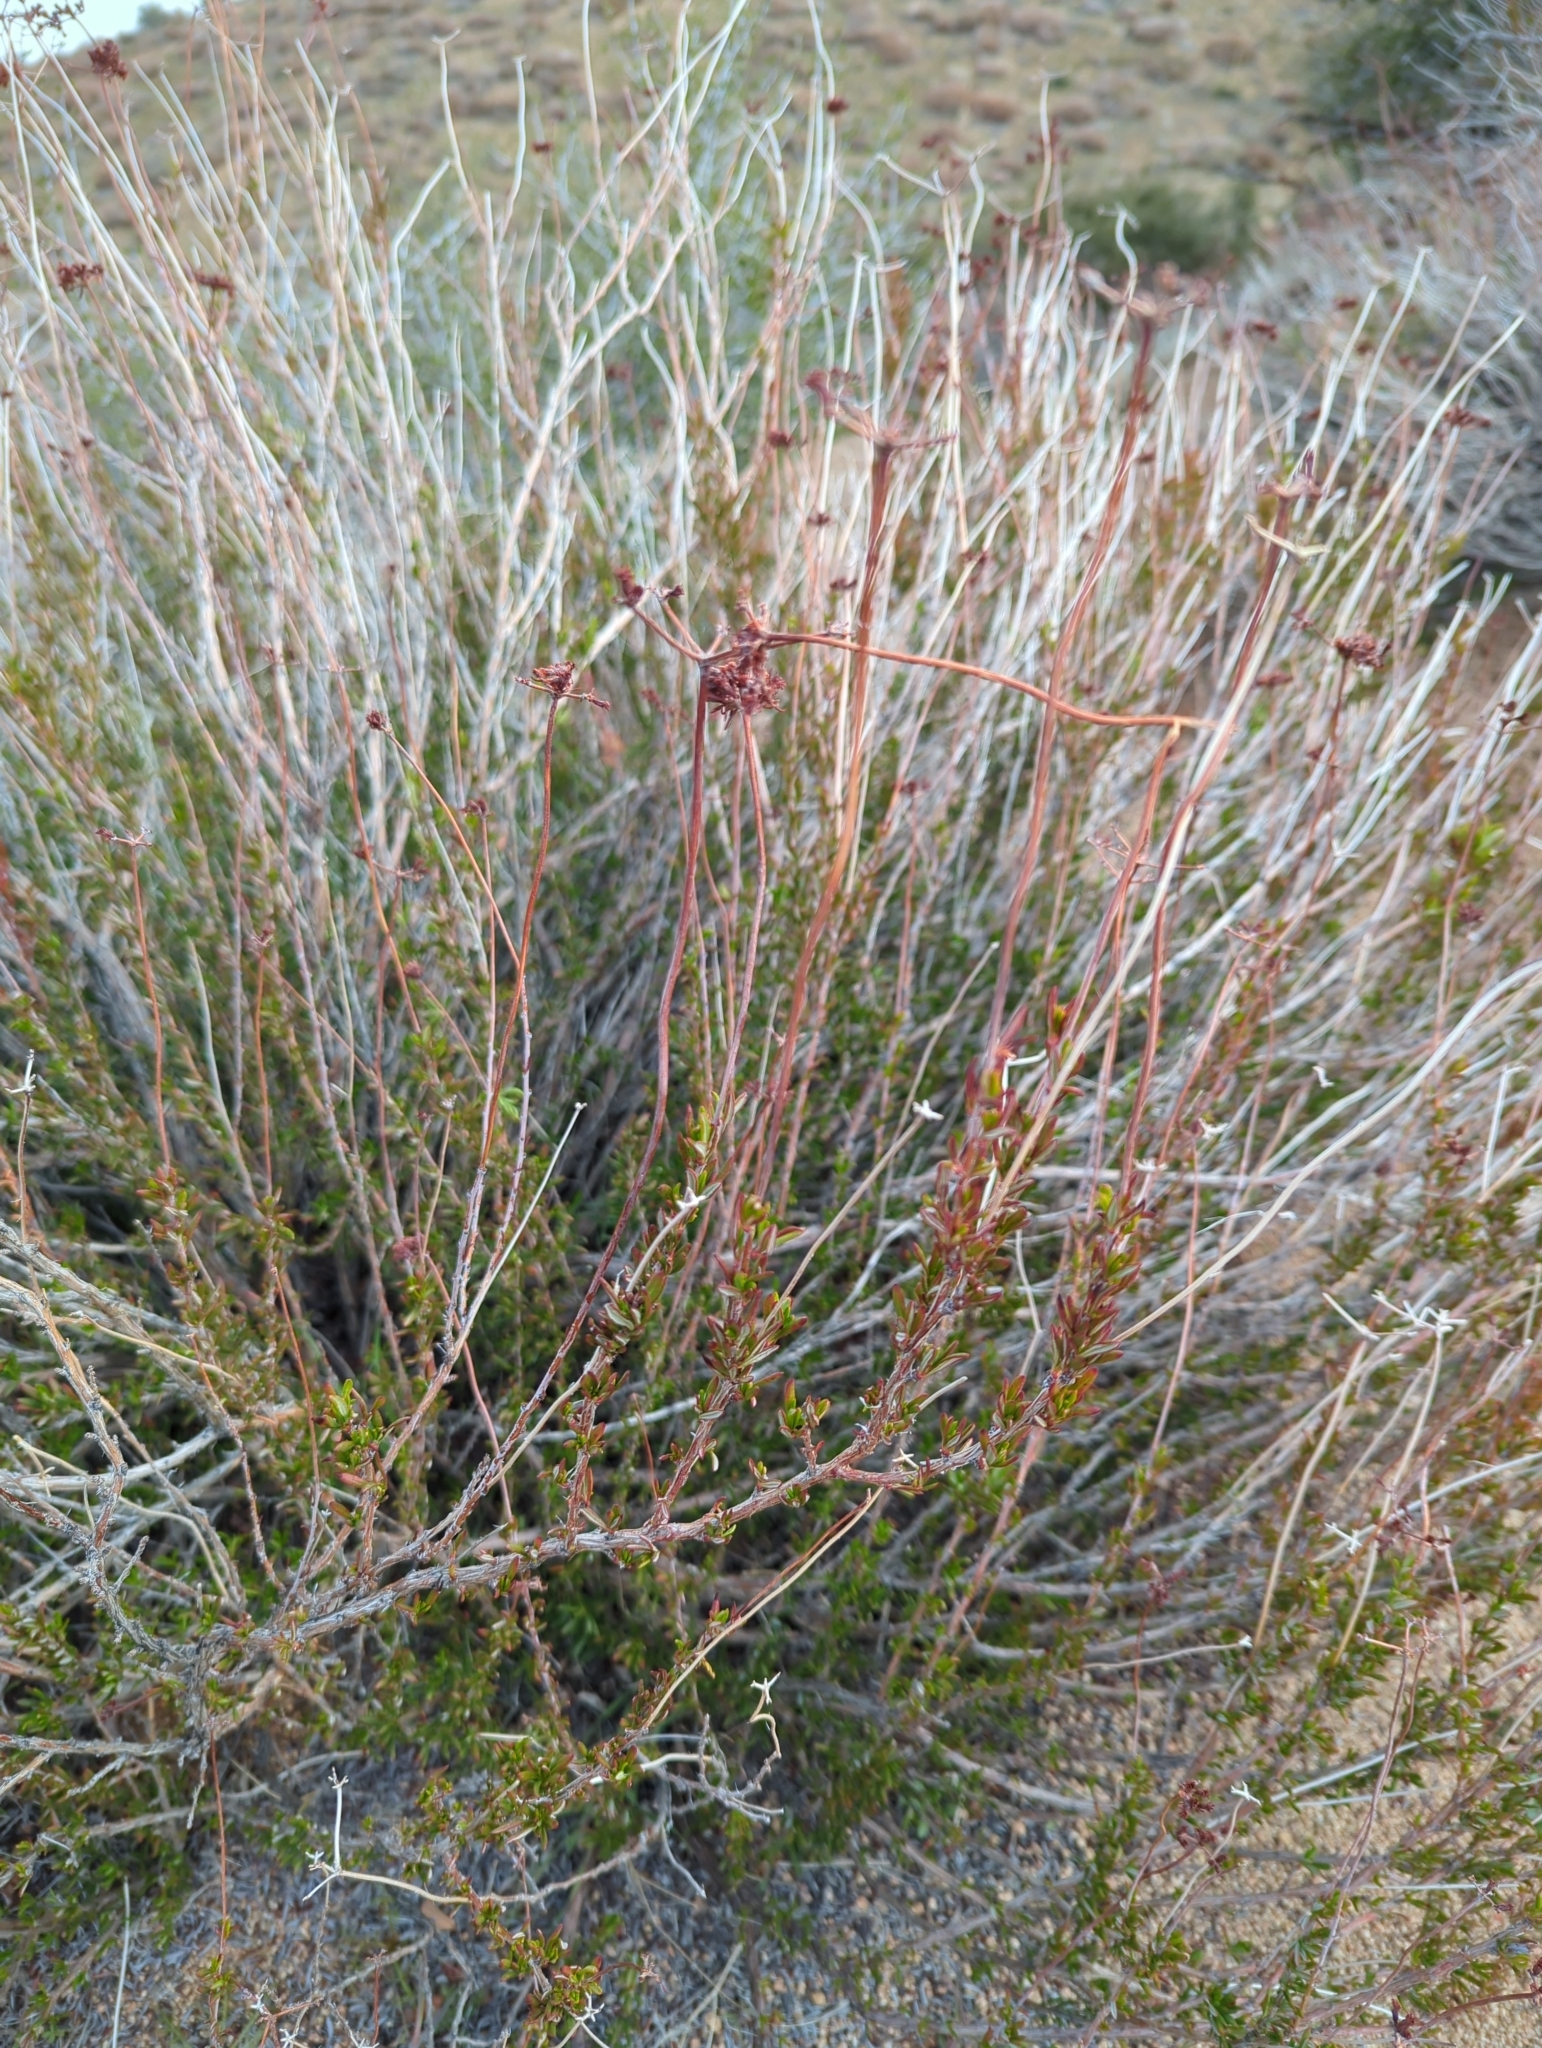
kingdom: Plantae
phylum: Tracheophyta
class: Magnoliopsida
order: Caryophyllales
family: Polygonaceae
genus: Eriogonum
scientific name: Eriogonum fasciculatum
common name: California wild buckwheat
